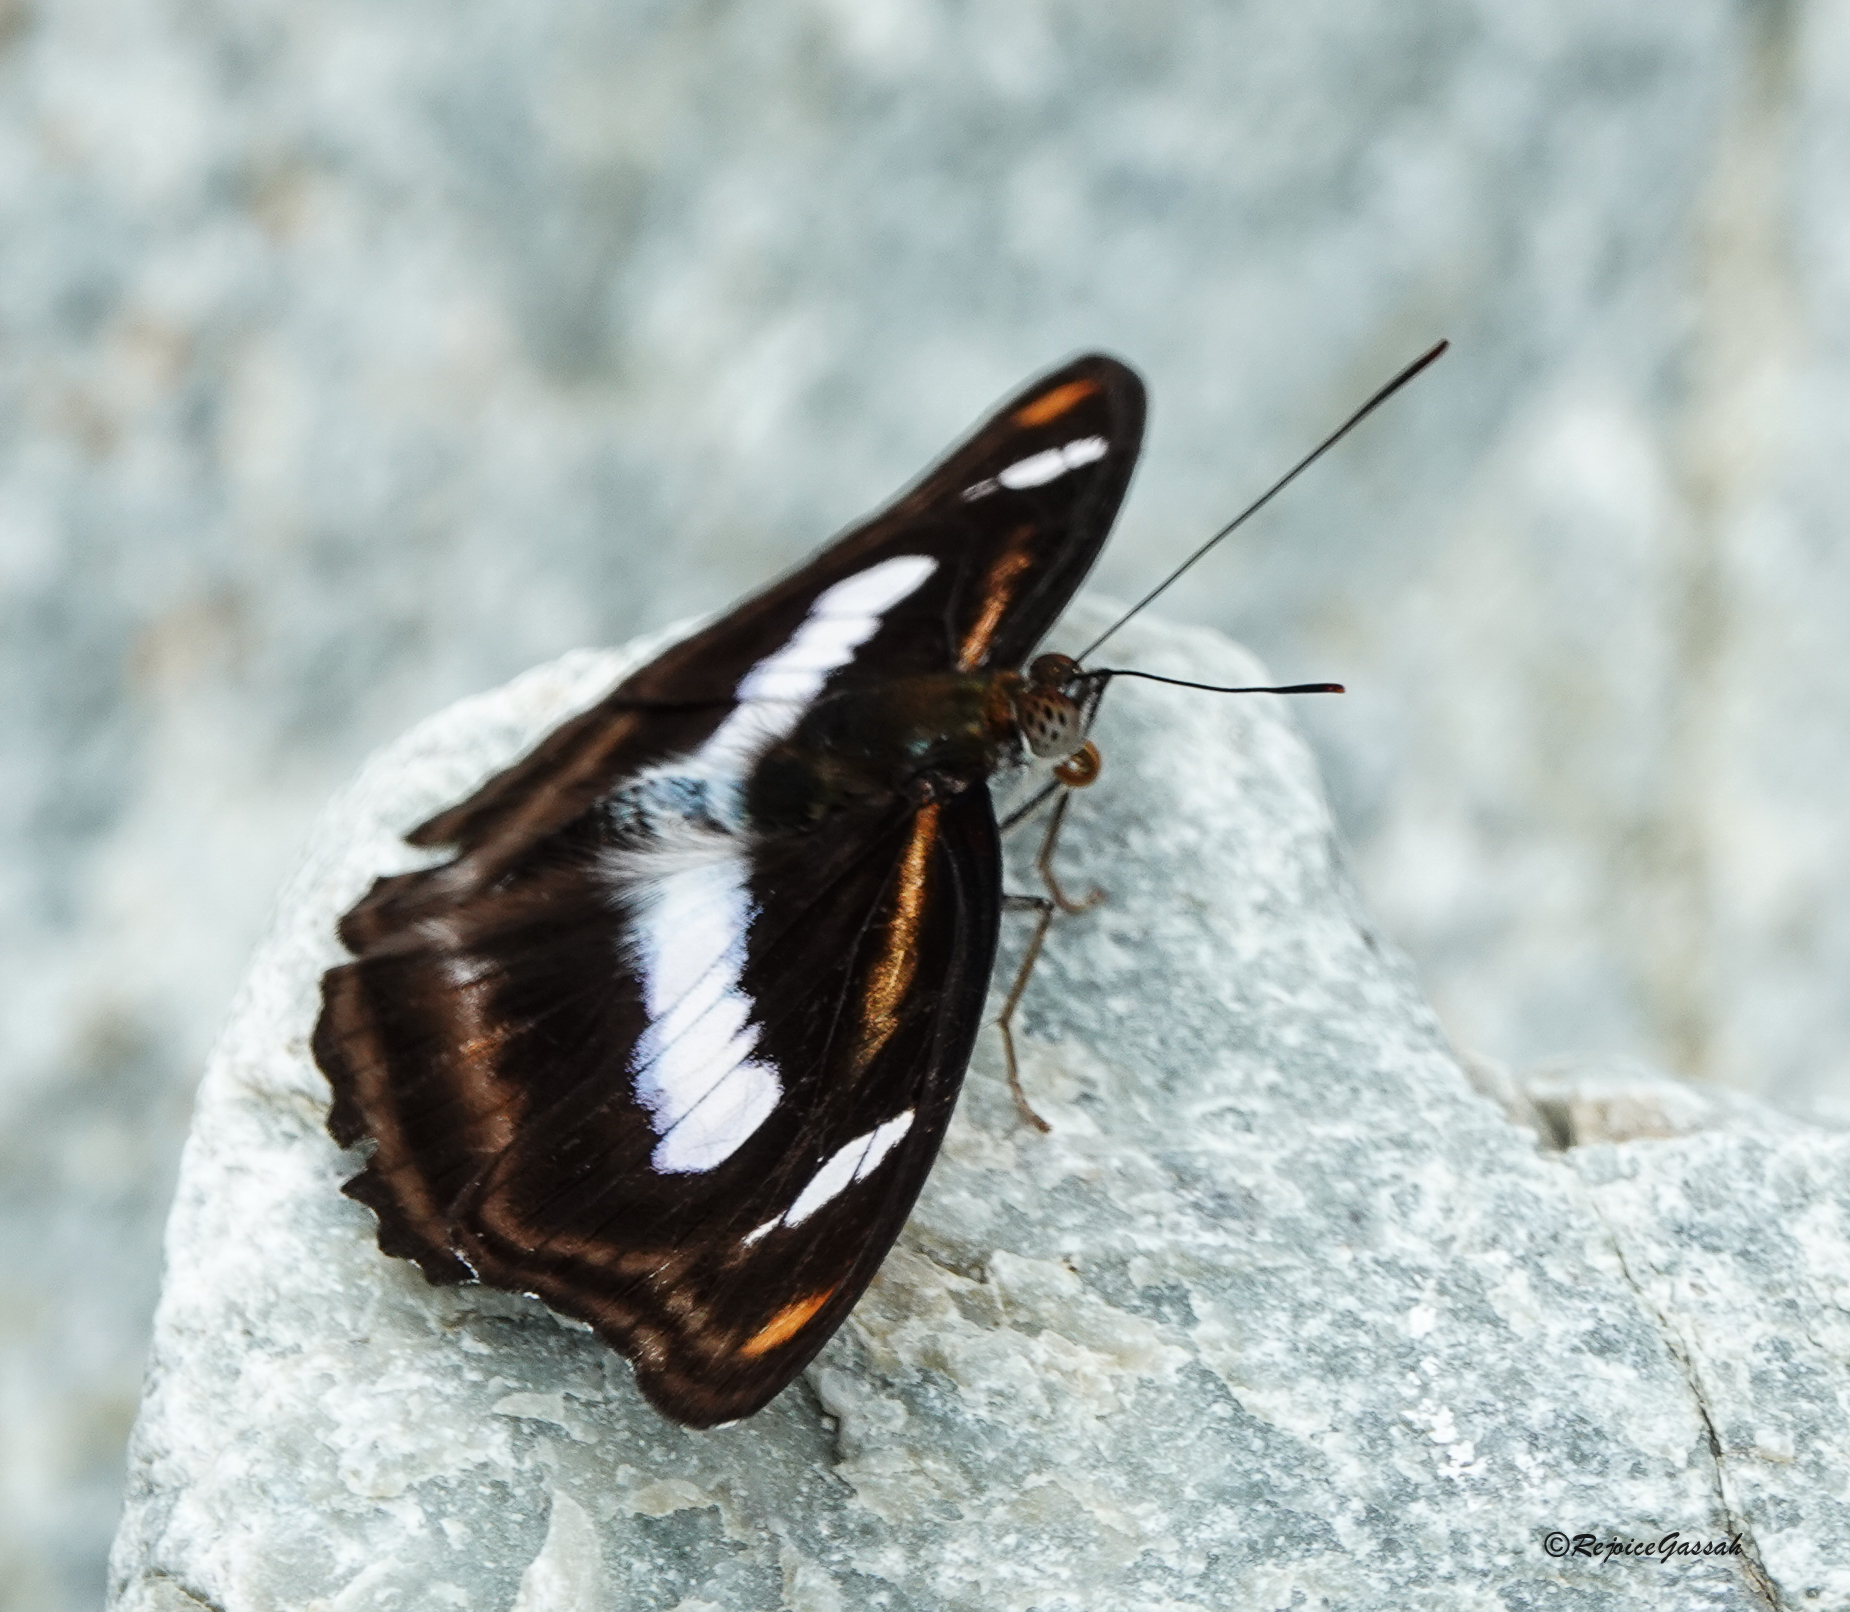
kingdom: Animalia
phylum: Arthropoda
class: Insecta
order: Lepidoptera
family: Nymphalidae
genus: Pantoporia
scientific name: Pantoporia cama
